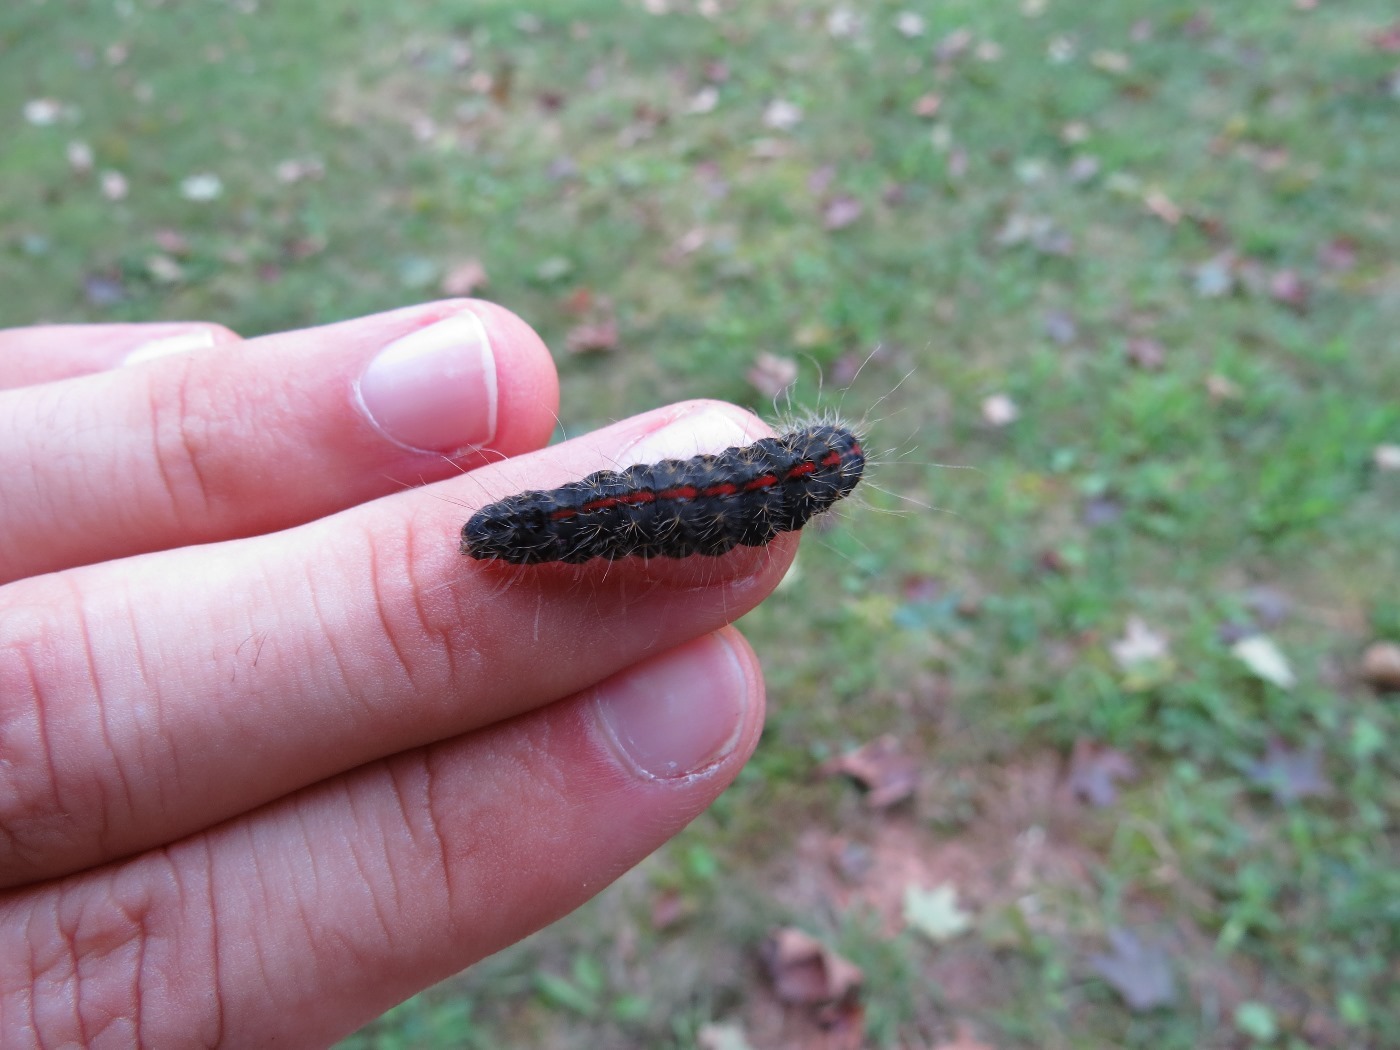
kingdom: Animalia
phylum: Arthropoda
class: Insecta
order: Lepidoptera
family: Noctuidae
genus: Acronicta
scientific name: Acronicta hasta
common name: Cherry dagger
